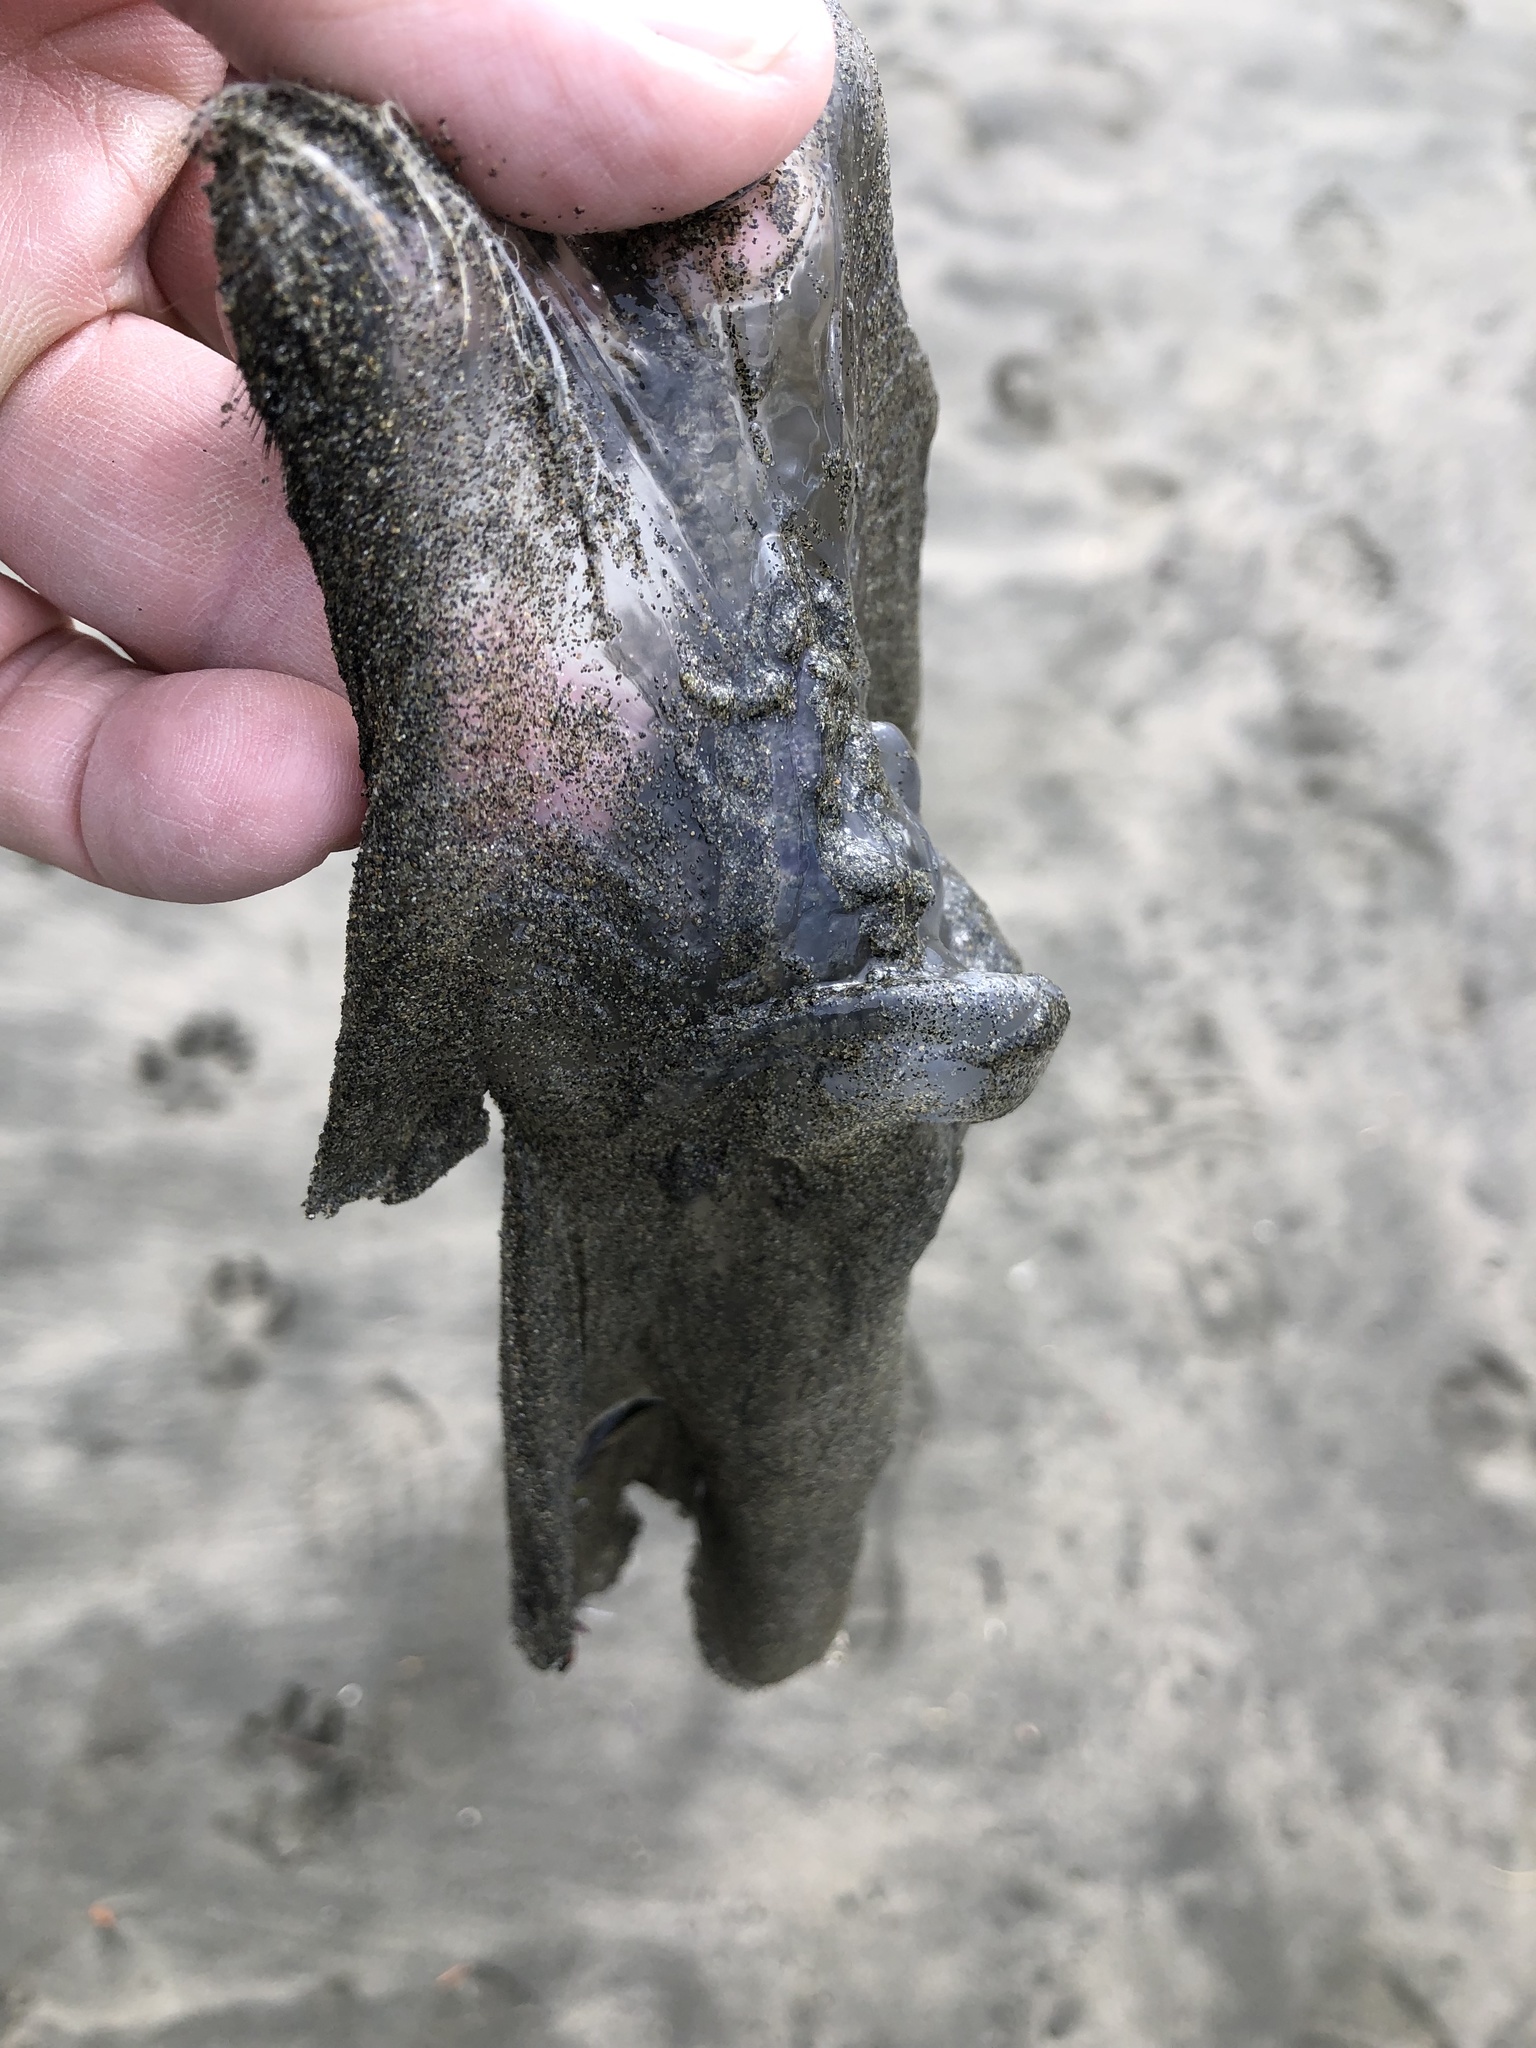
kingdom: Animalia
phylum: Cnidaria
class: Scyphozoa
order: Semaeostomeae
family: Ulmaridae
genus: Aurelia
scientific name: Aurelia labiata
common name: Pacific moon jelly
